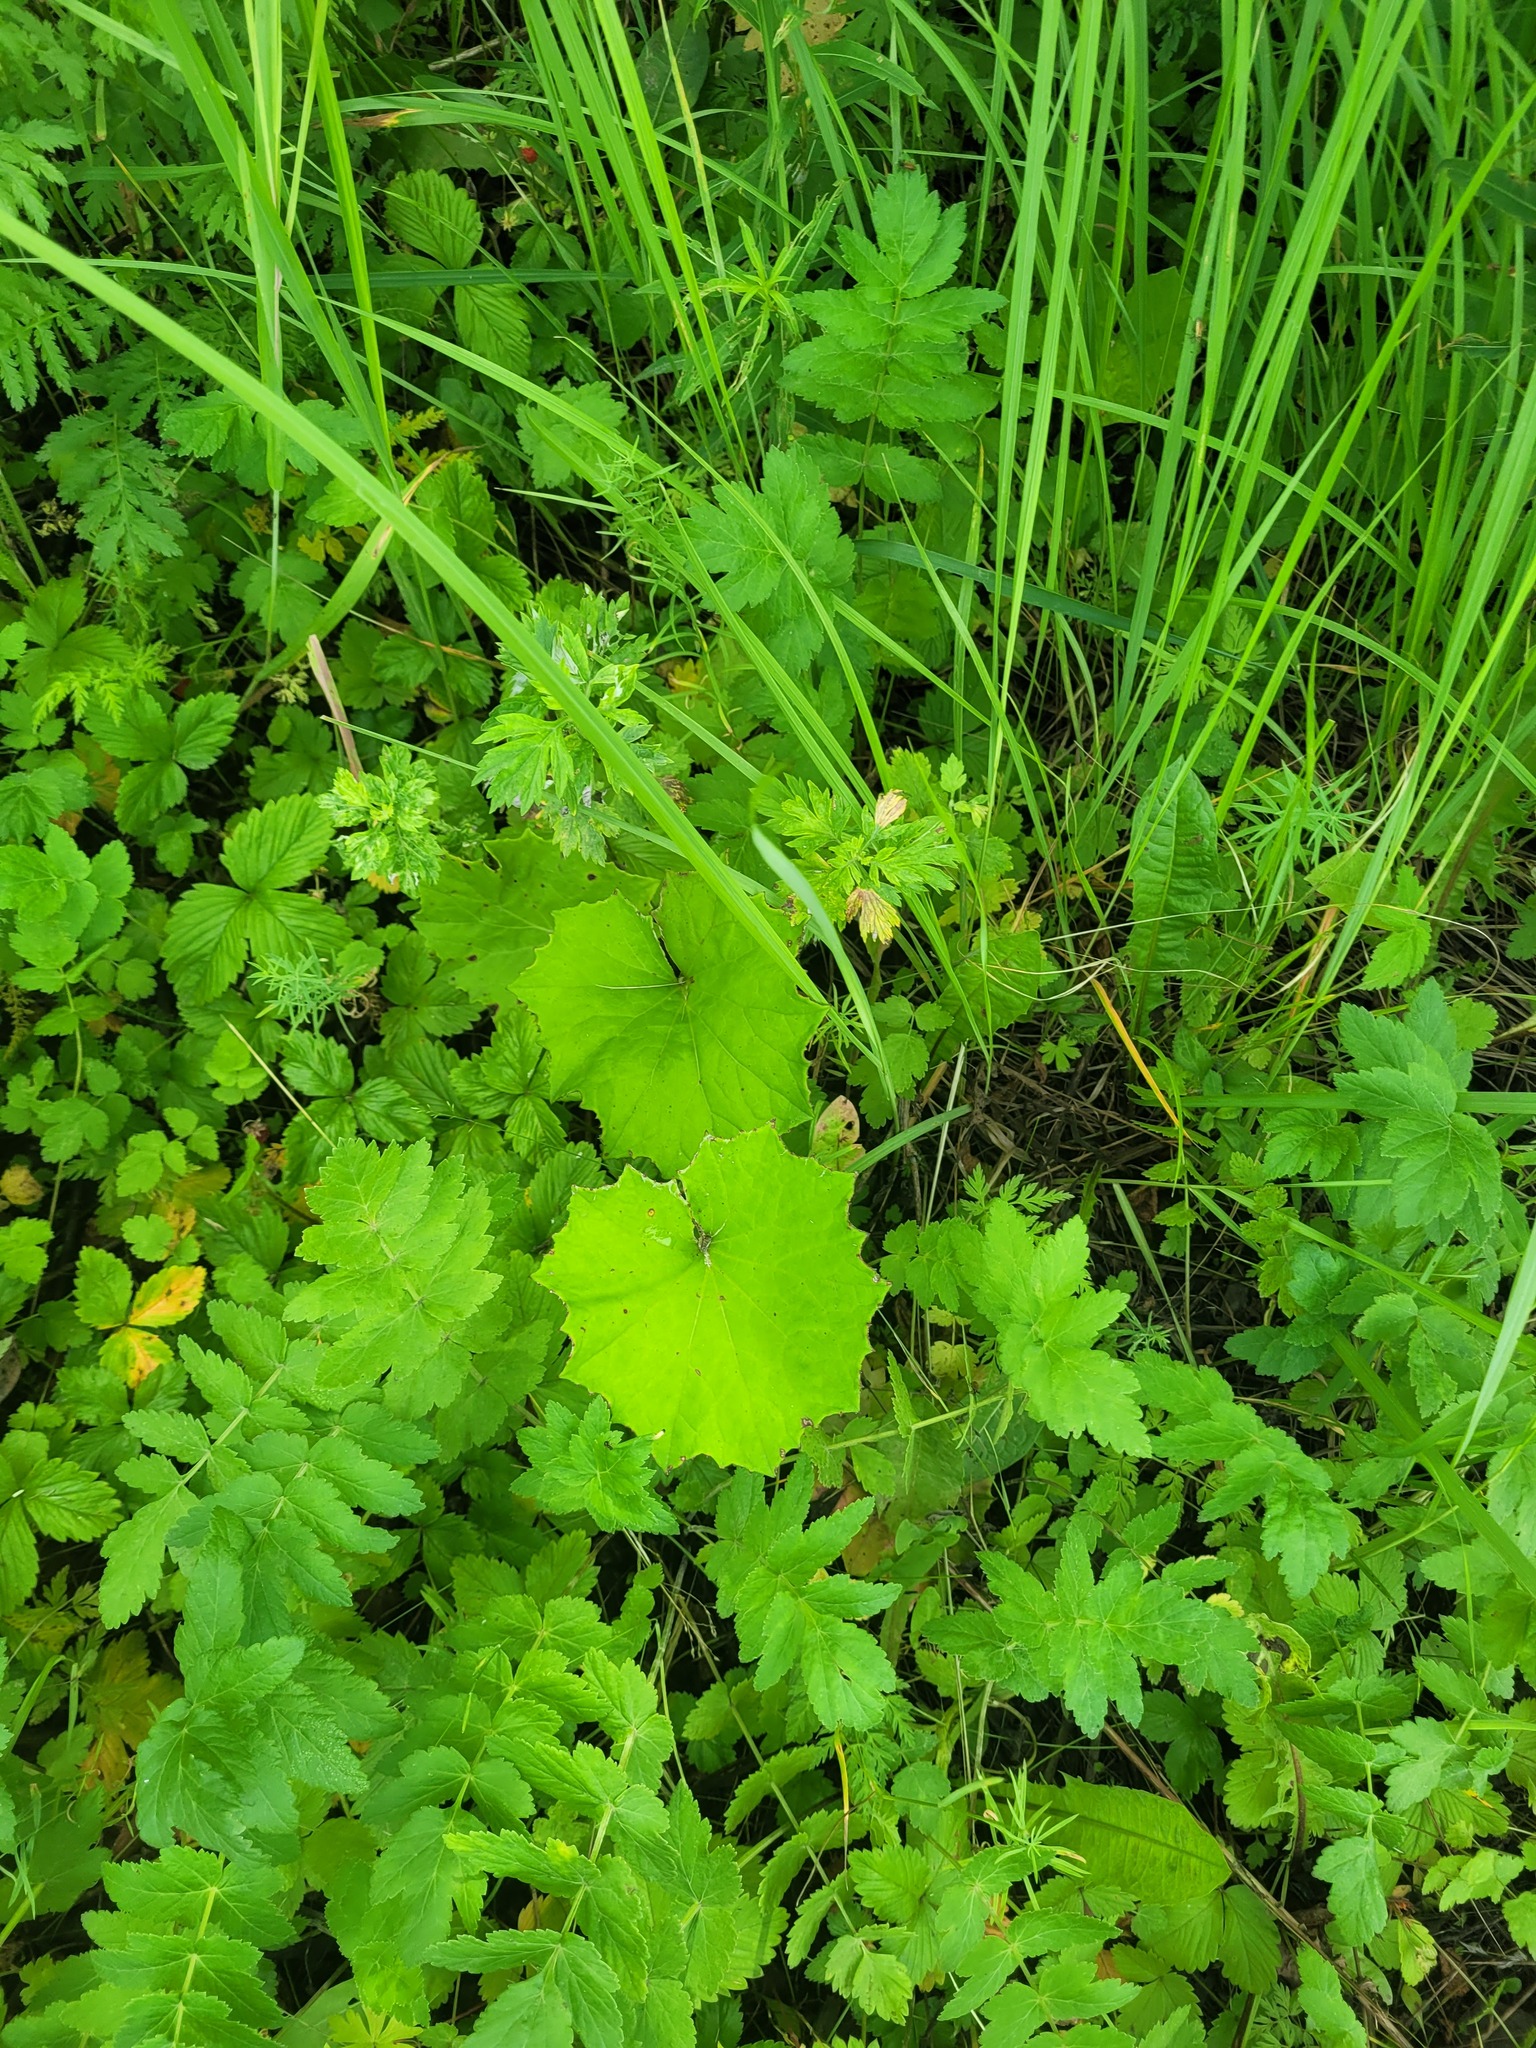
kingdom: Plantae
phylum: Tracheophyta
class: Magnoliopsida
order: Asterales
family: Asteraceae
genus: Tussilago
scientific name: Tussilago farfara
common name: Coltsfoot
